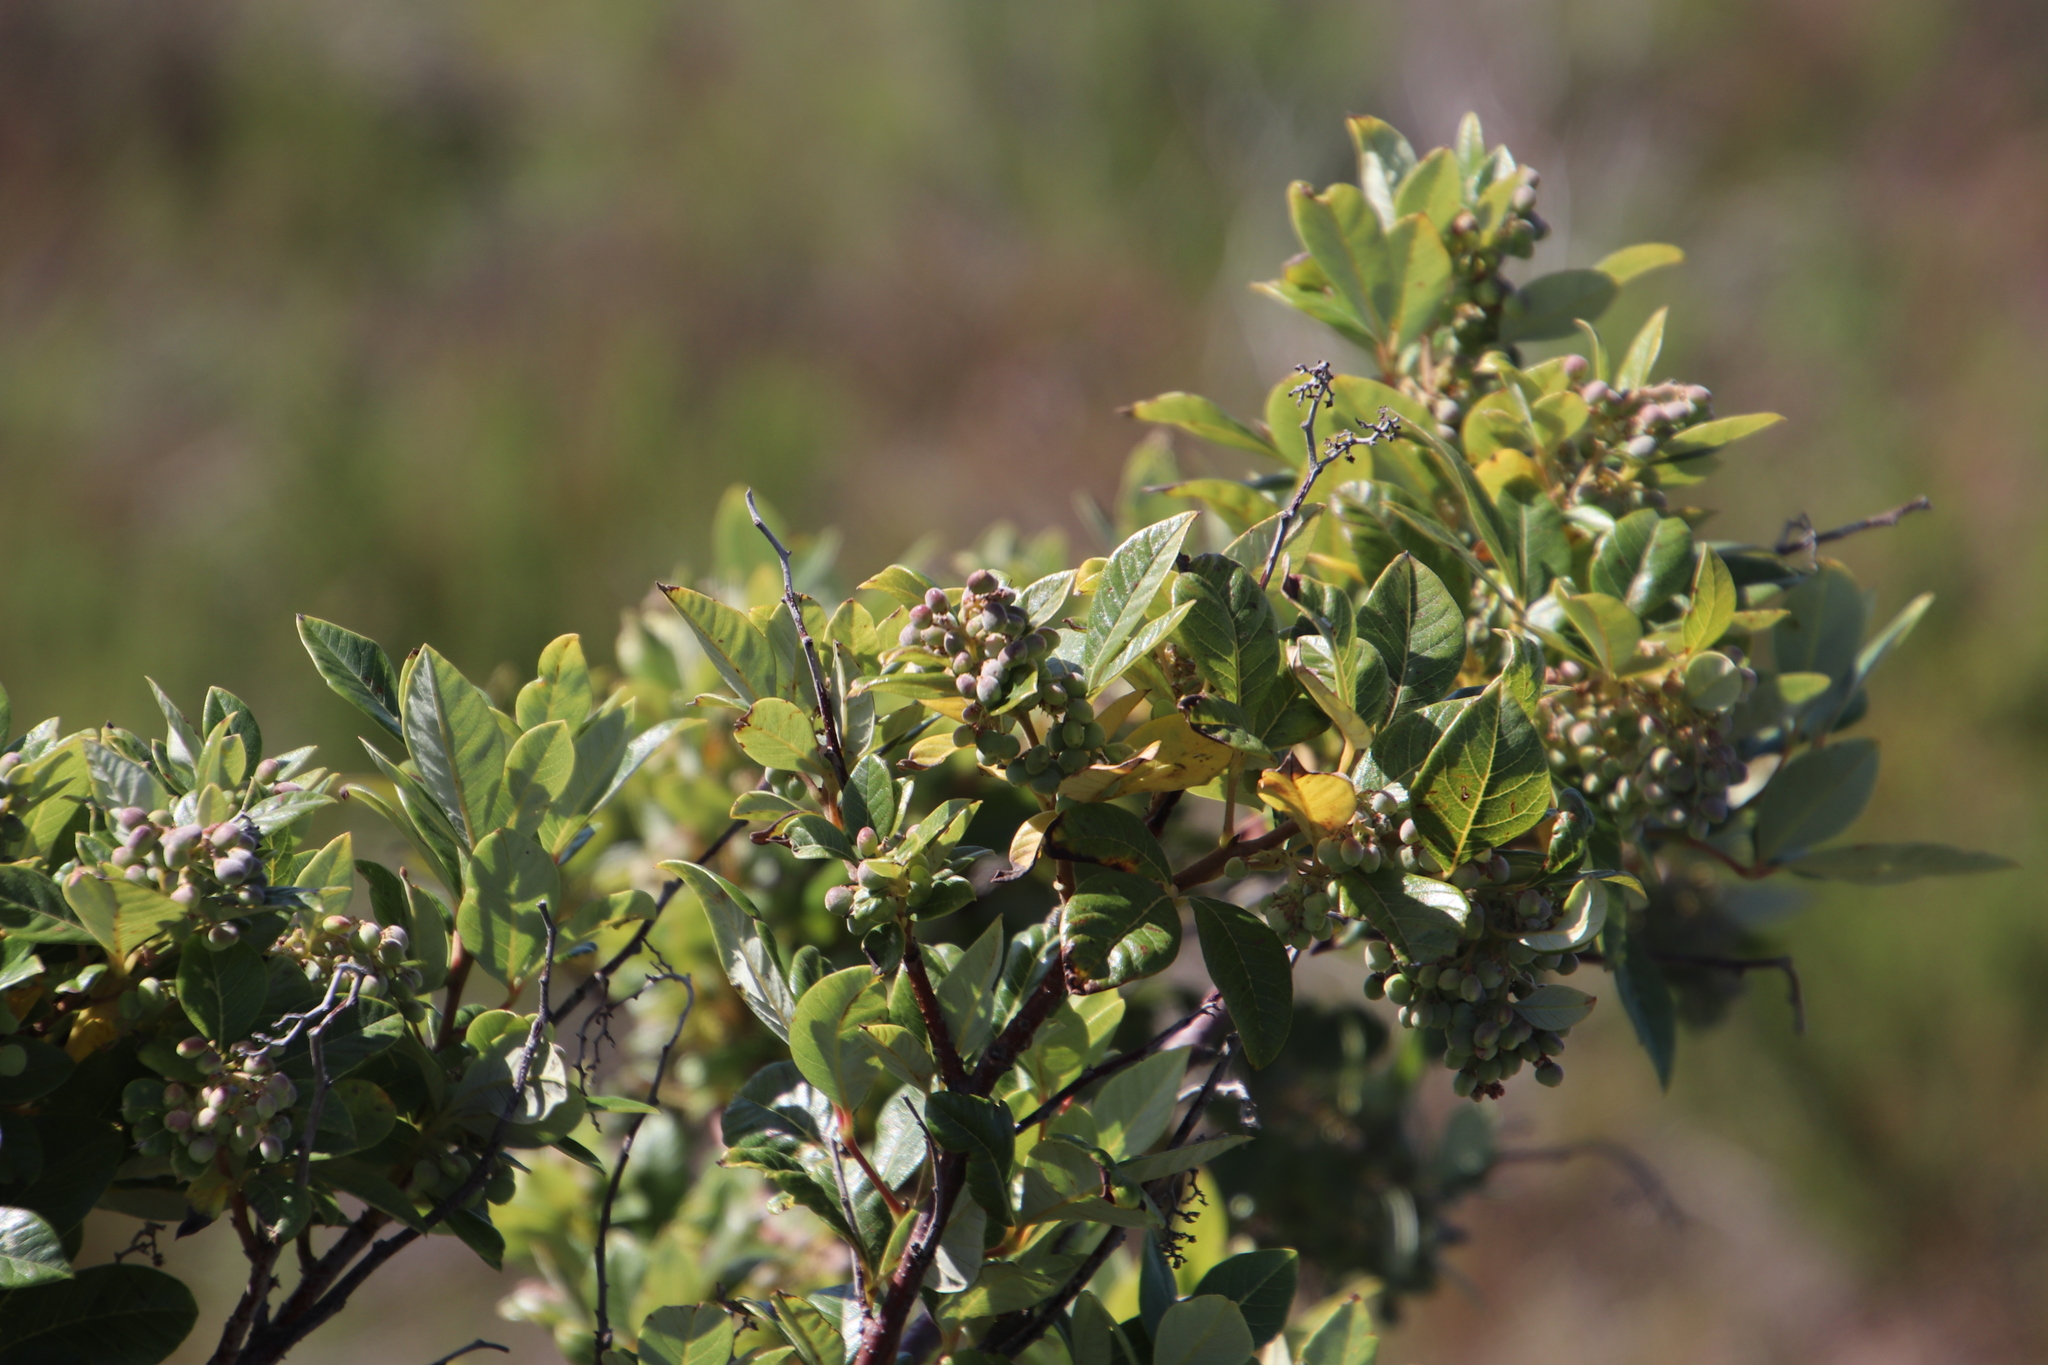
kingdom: Plantae
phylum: Tracheophyta
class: Magnoliopsida
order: Sapindales
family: Anacardiaceae
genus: Searsia
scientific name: Searsia tomentosa
